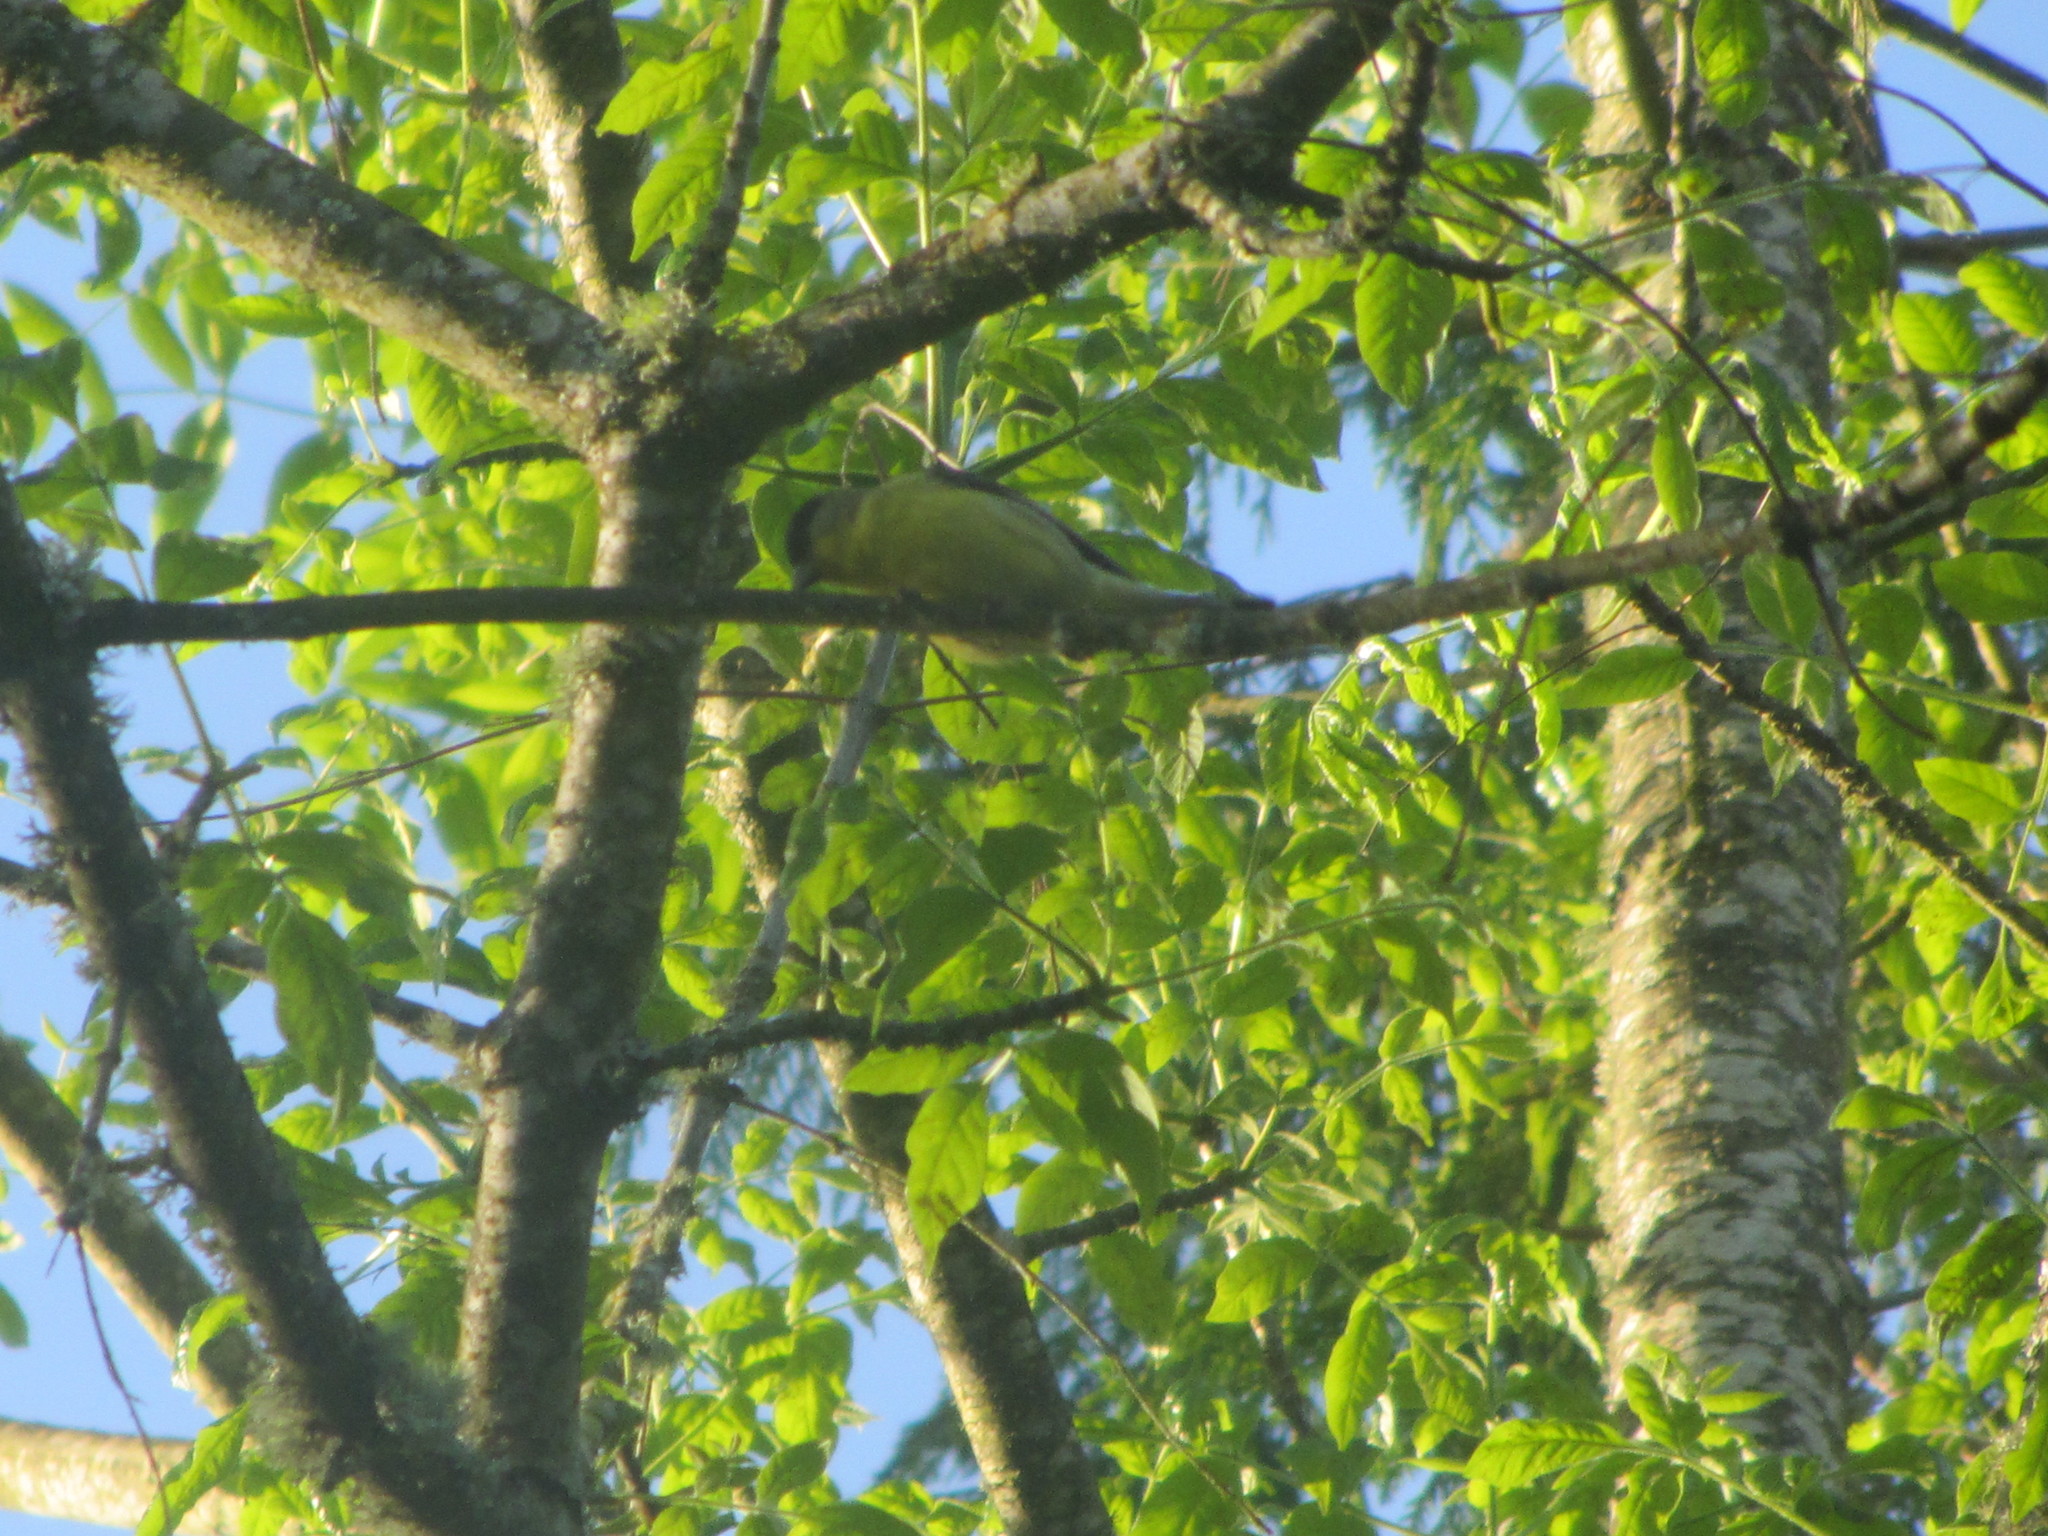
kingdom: Animalia
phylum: Chordata
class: Aves
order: Passeriformes
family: Fringillidae
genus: Spinus
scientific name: Spinus psaltria
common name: Lesser goldfinch
